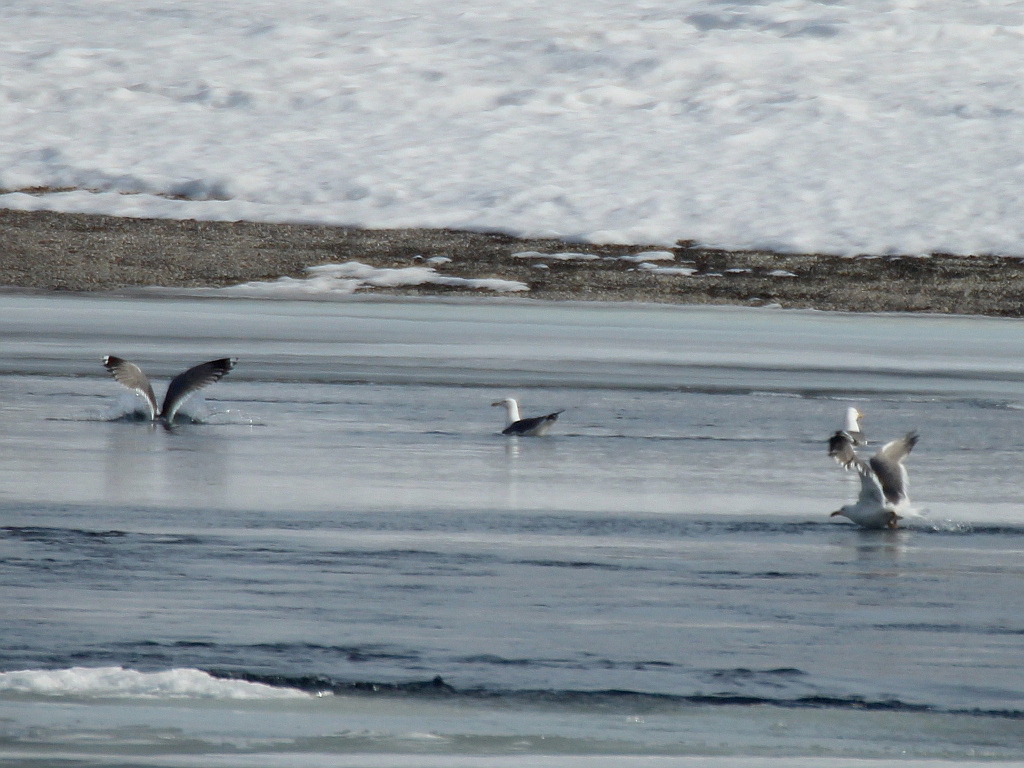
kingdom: Animalia
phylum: Chordata
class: Aves
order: Charadriiformes
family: Laridae
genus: Larus
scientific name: Larus fuscus
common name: Lesser black-backed gull
